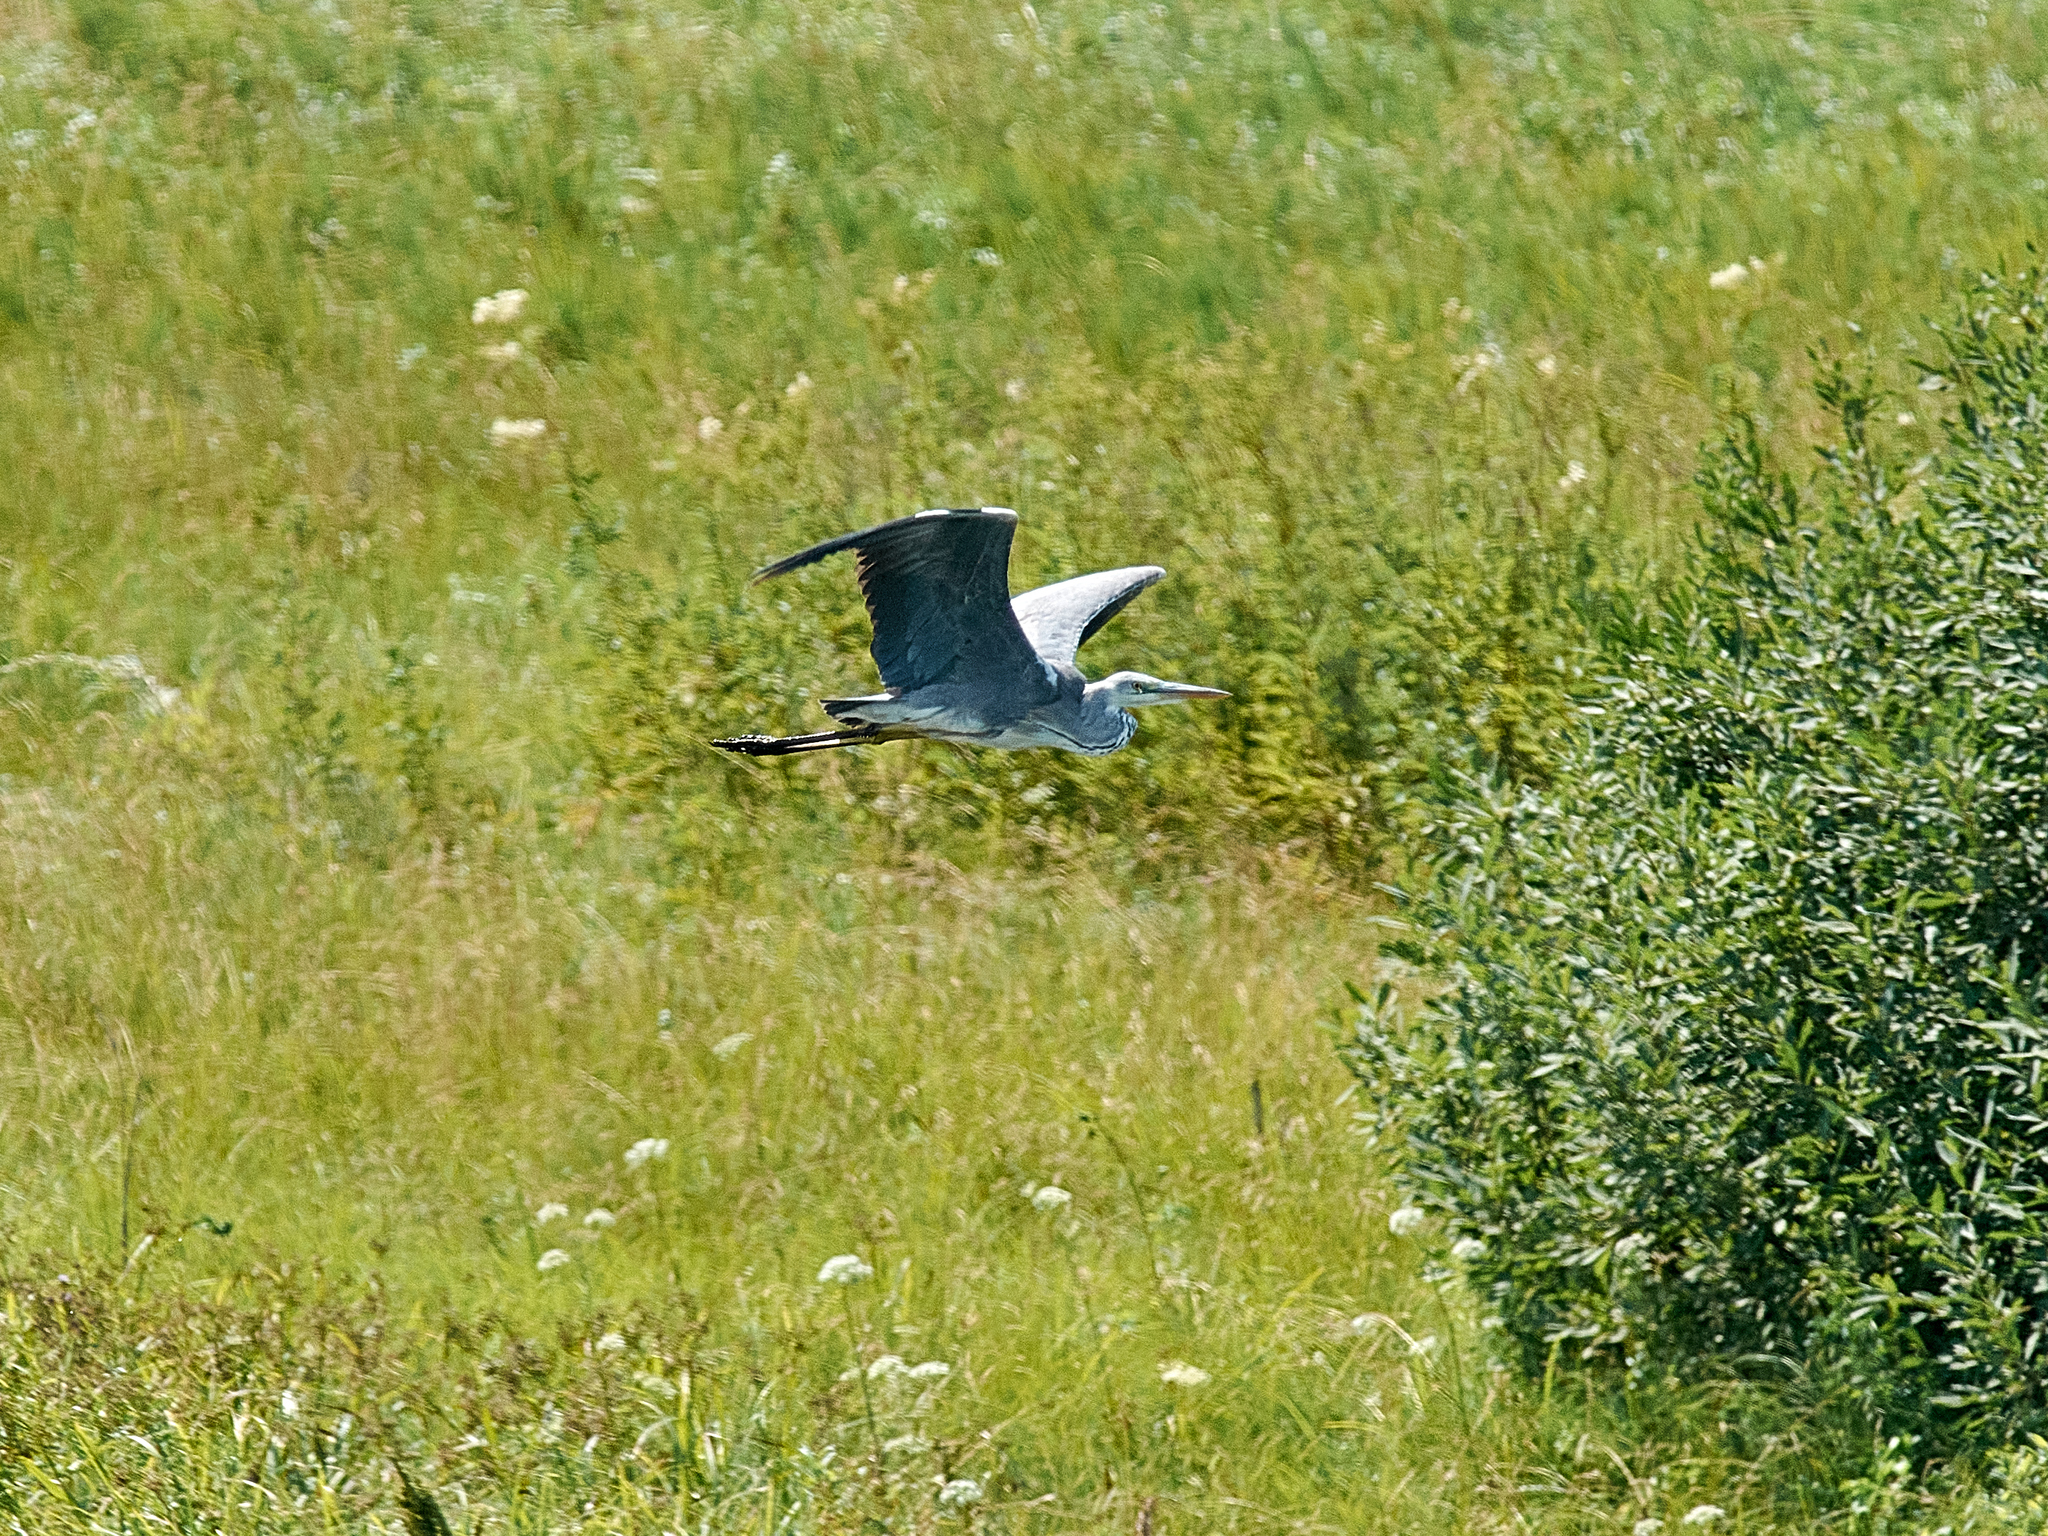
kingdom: Animalia
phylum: Chordata
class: Aves
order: Pelecaniformes
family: Ardeidae
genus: Ardea
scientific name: Ardea cinerea
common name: Grey heron
